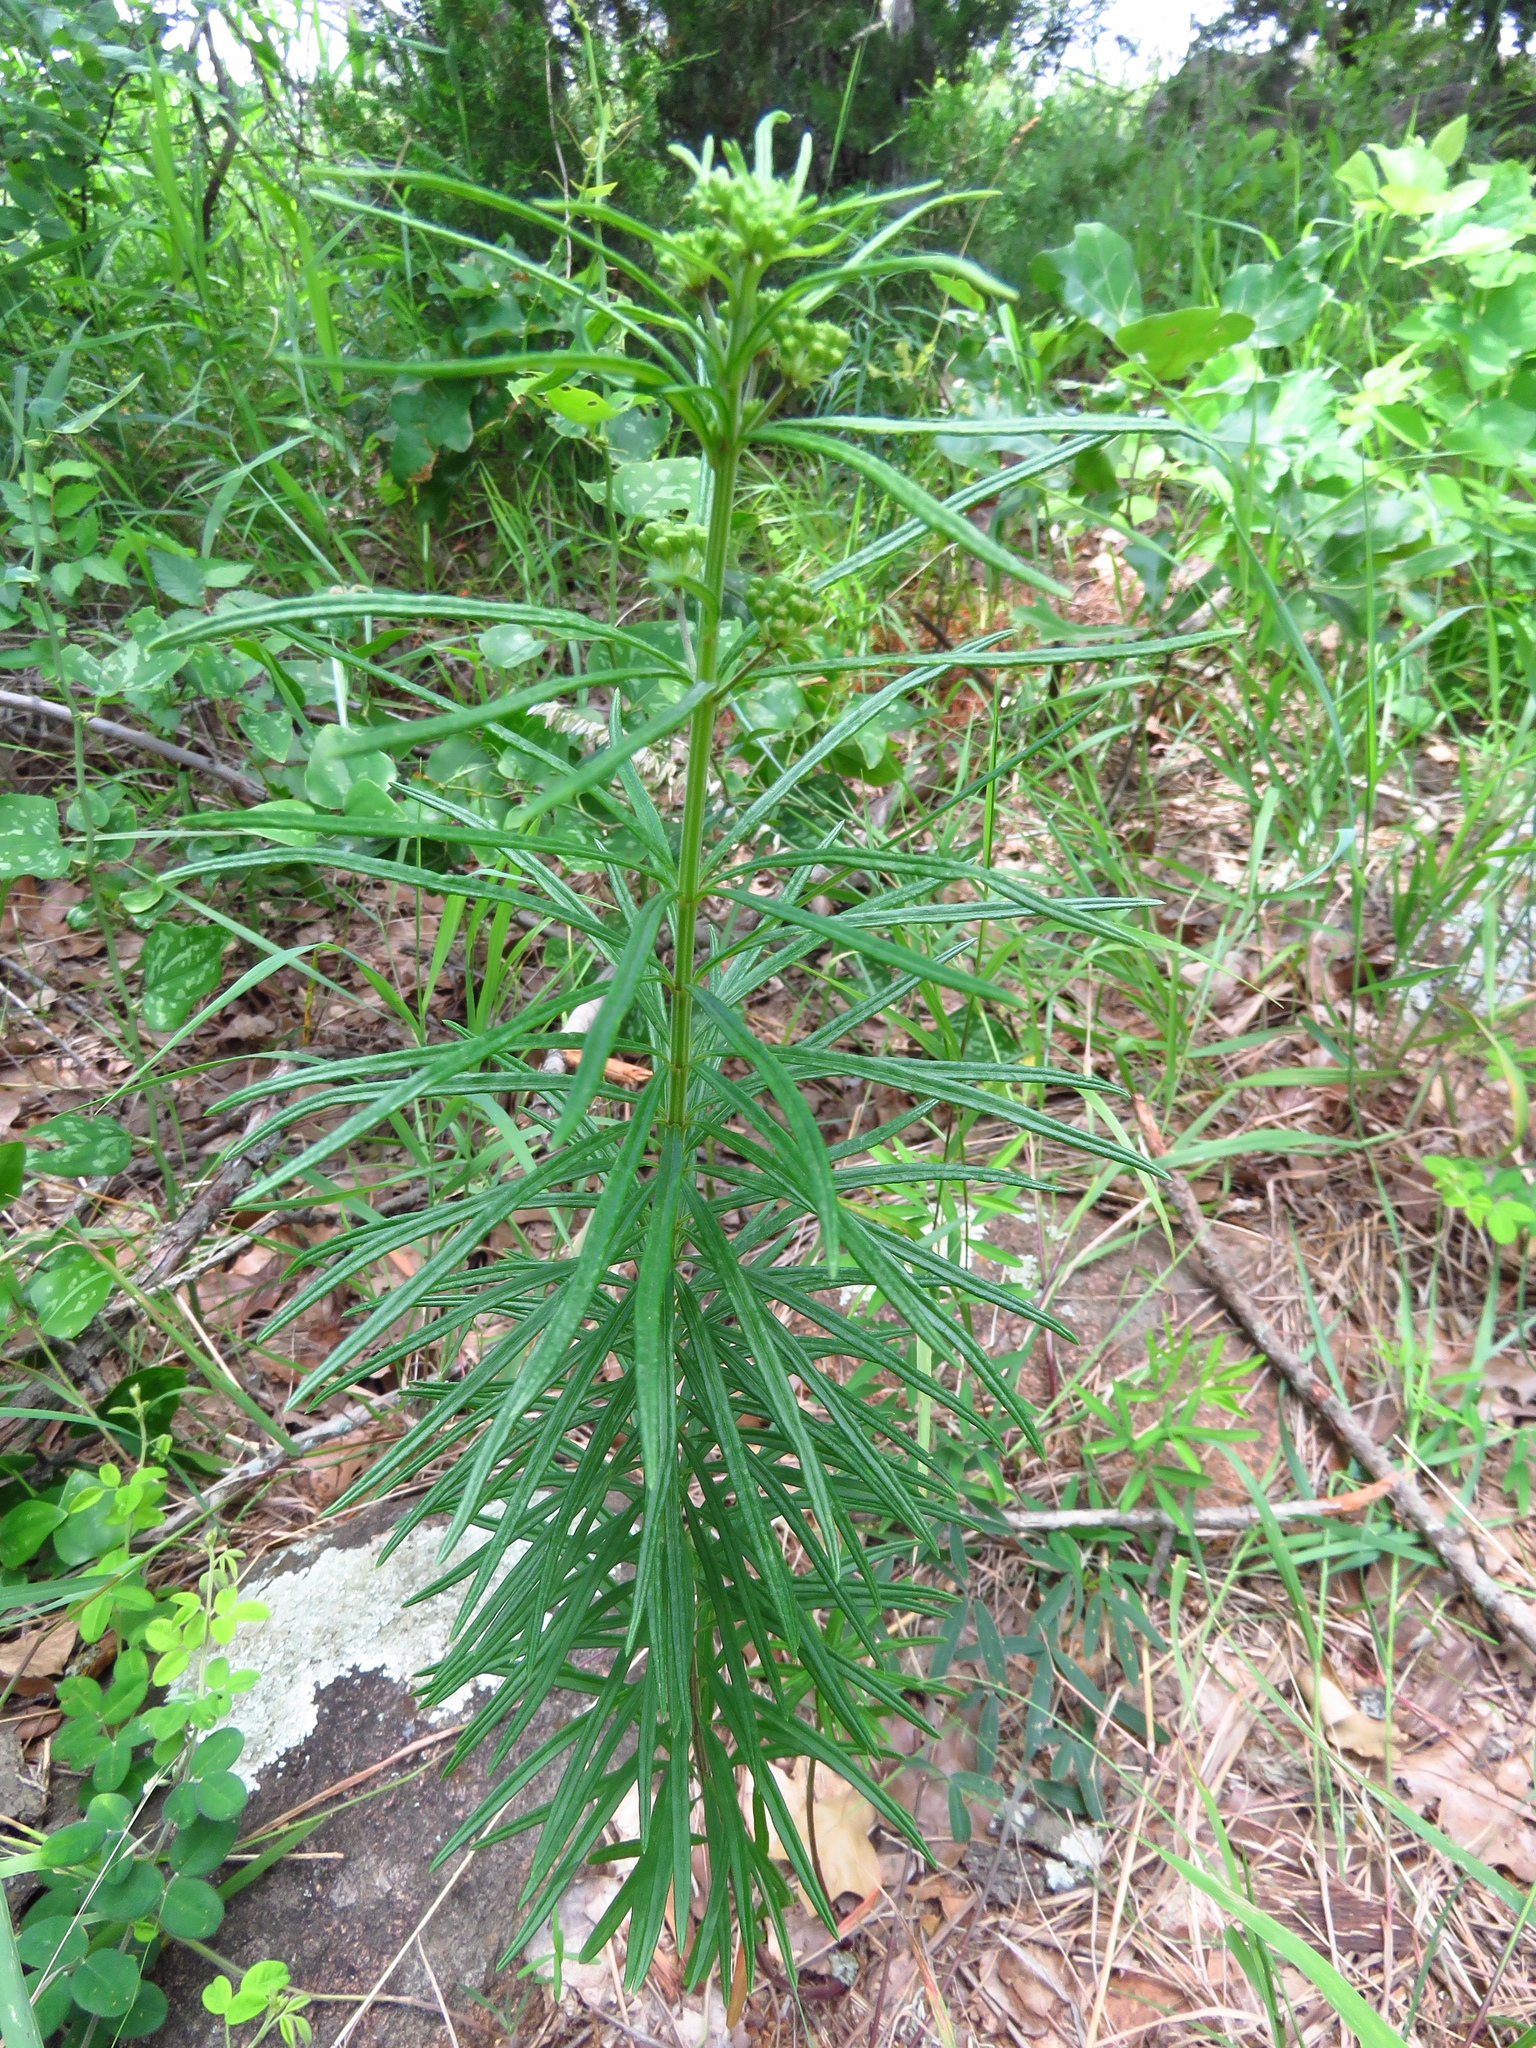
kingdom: Plantae
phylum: Tracheophyta
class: Magnoliopsida
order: Gentianales
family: Apocynaceae
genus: Asclepias
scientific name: Asclepias verticillata
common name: Eastern whorled milkweed
